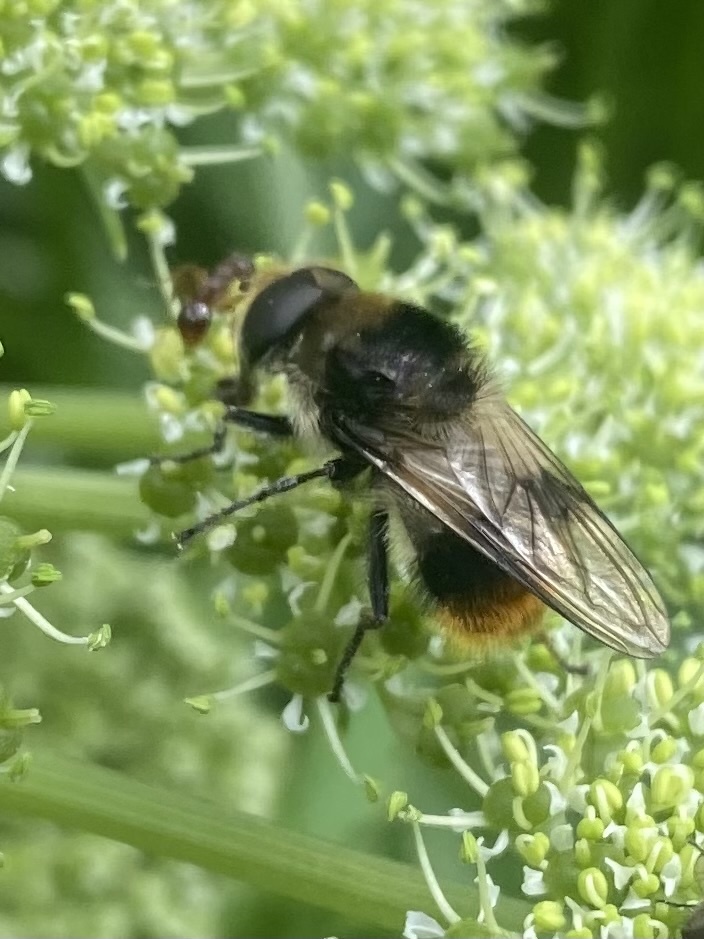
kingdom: Animalia
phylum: Arthropoda
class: Insecta
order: Diptera
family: Syrphidae
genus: Cheilosia
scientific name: Cheilosia illustrata
